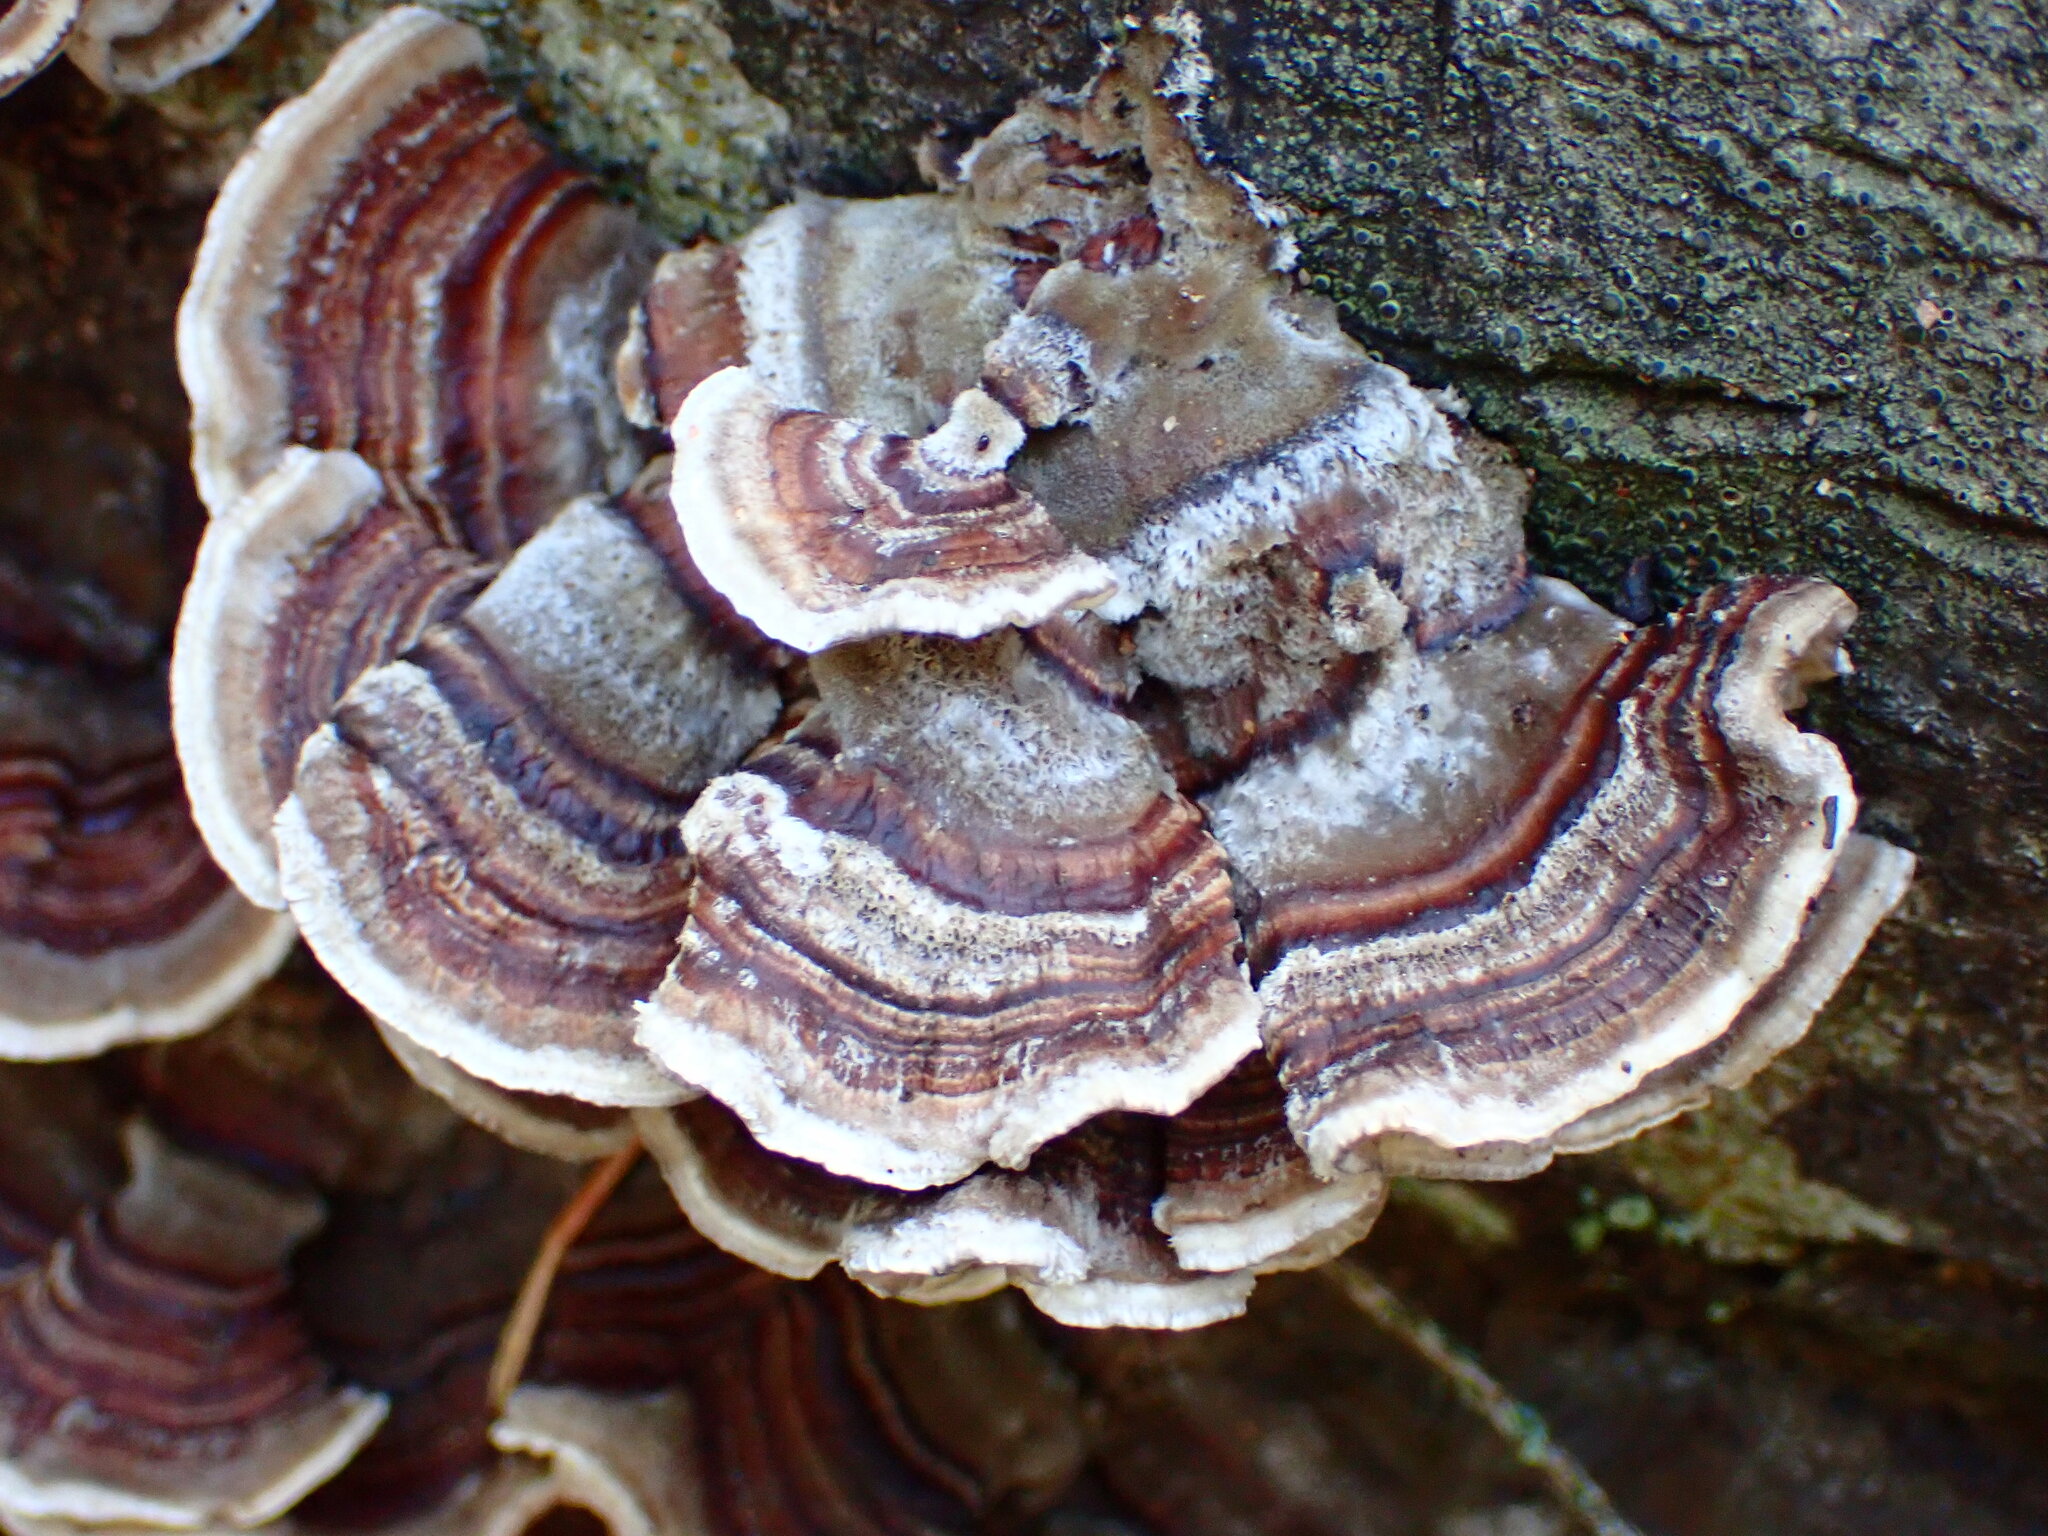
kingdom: Fungi
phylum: Basidiomycota
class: Agaricomycetes
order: Polyporales
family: Polyporaceae
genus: Trametes
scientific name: Trametes versicolor
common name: Turkeytail
